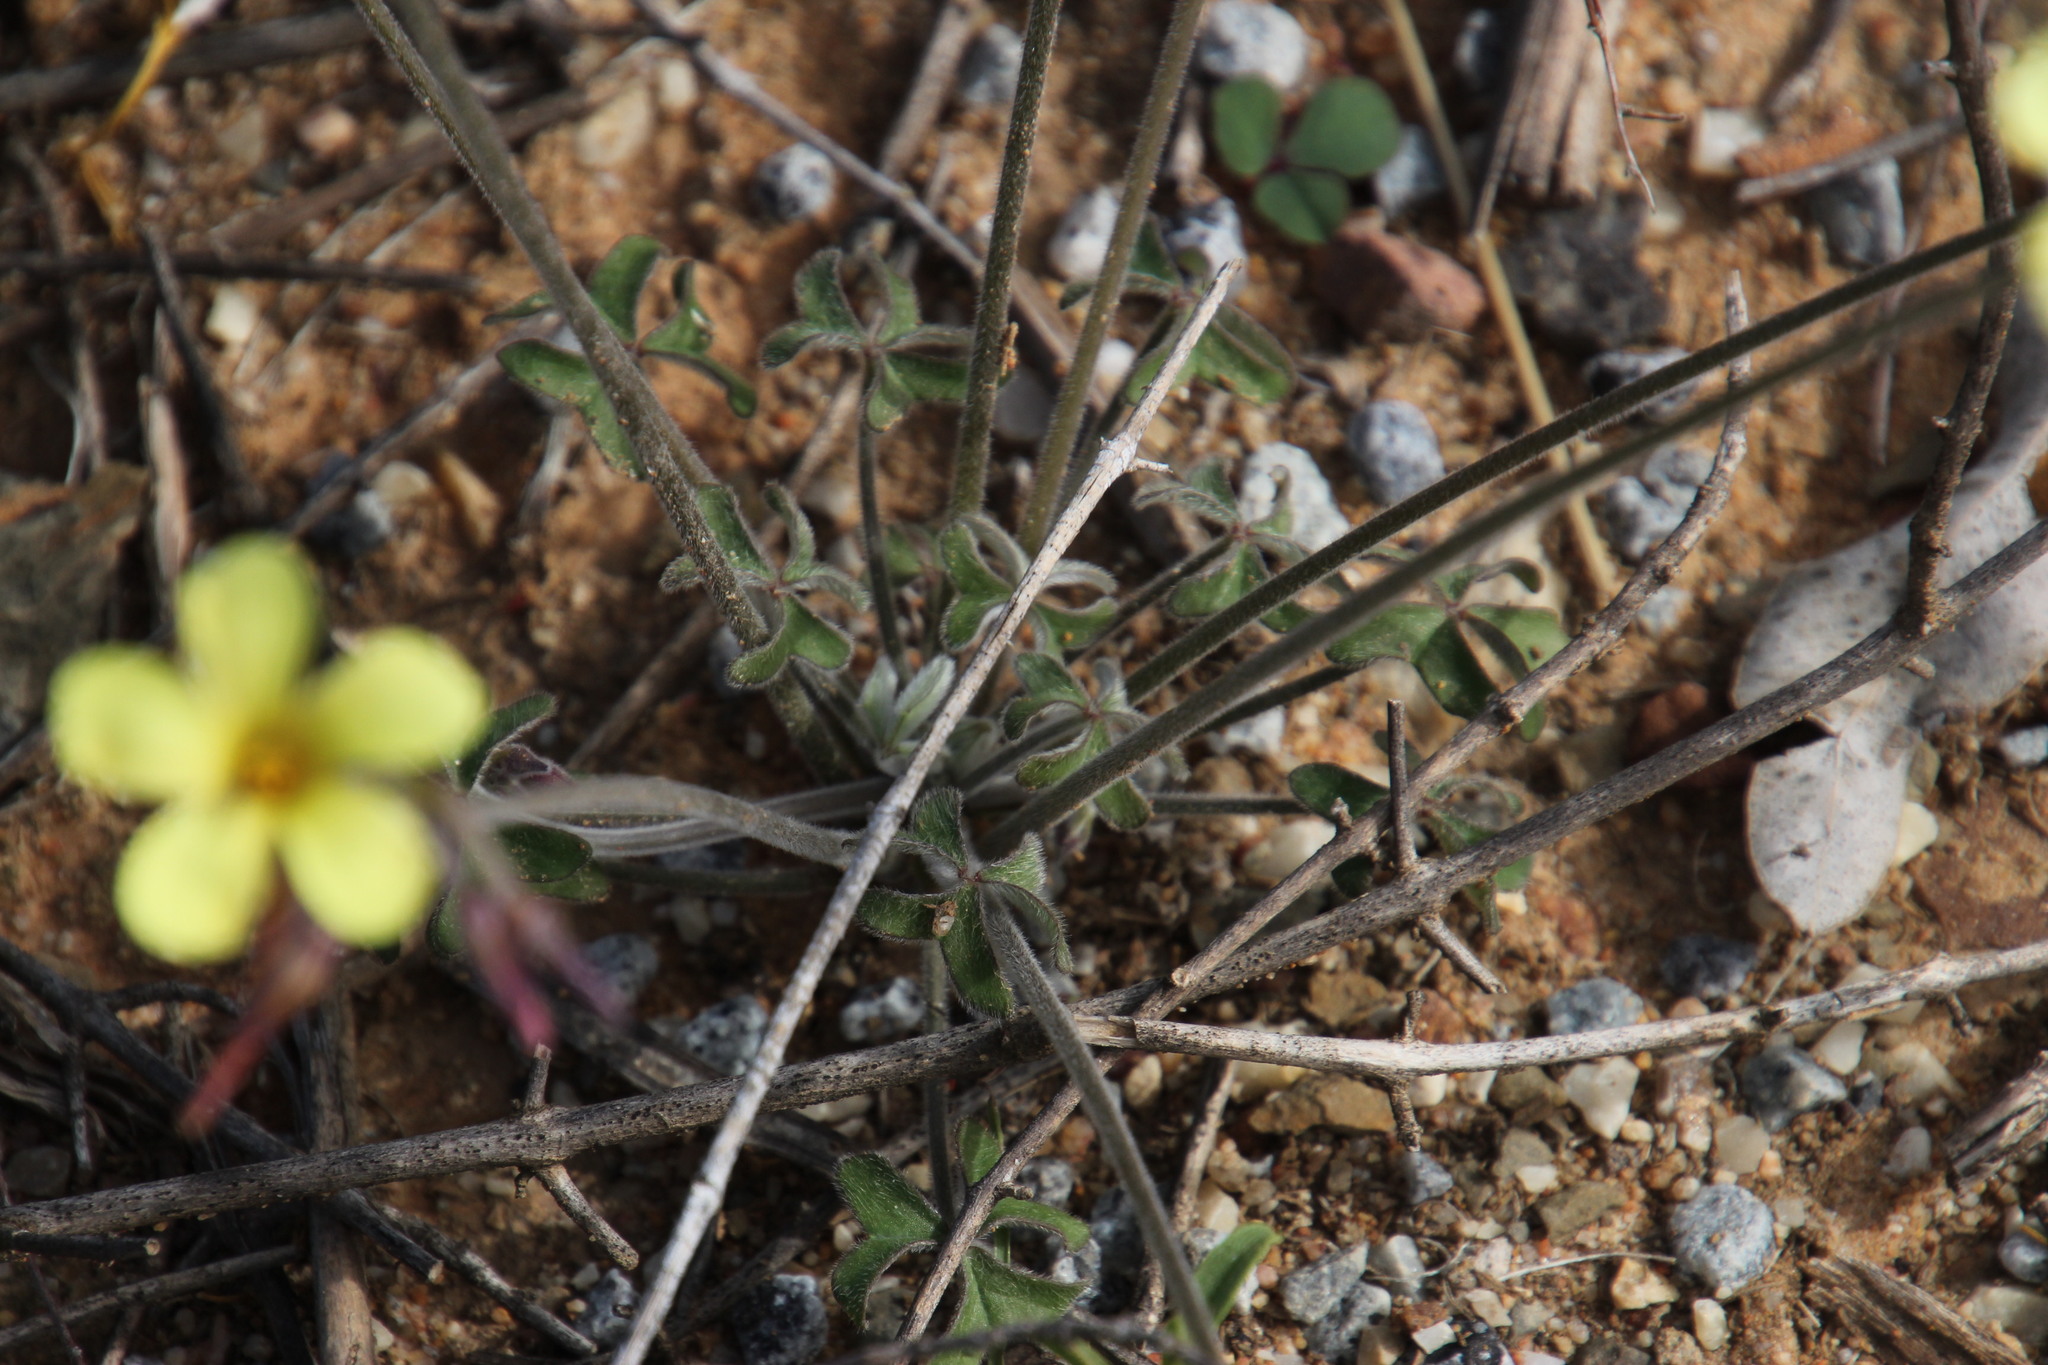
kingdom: Plantae
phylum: Tracheophyta
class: Magnoliopsida
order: Oxalidales
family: Oxalidaceae
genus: Oxalis
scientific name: Oxalis pes-caprae
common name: Bermuda-buttercup
